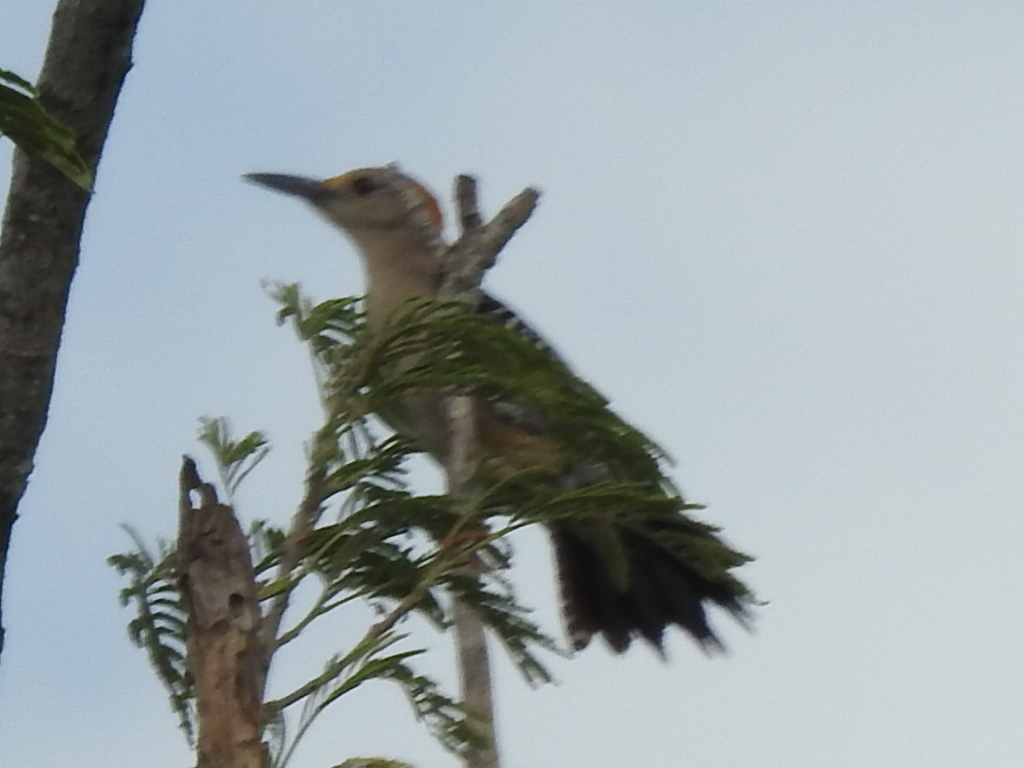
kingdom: Animalia
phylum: Chordata
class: Aves
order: Piciformes
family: Picidae
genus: Melanerpes
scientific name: Melanerpes aurifrons
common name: Golden-fronted woodpecker
